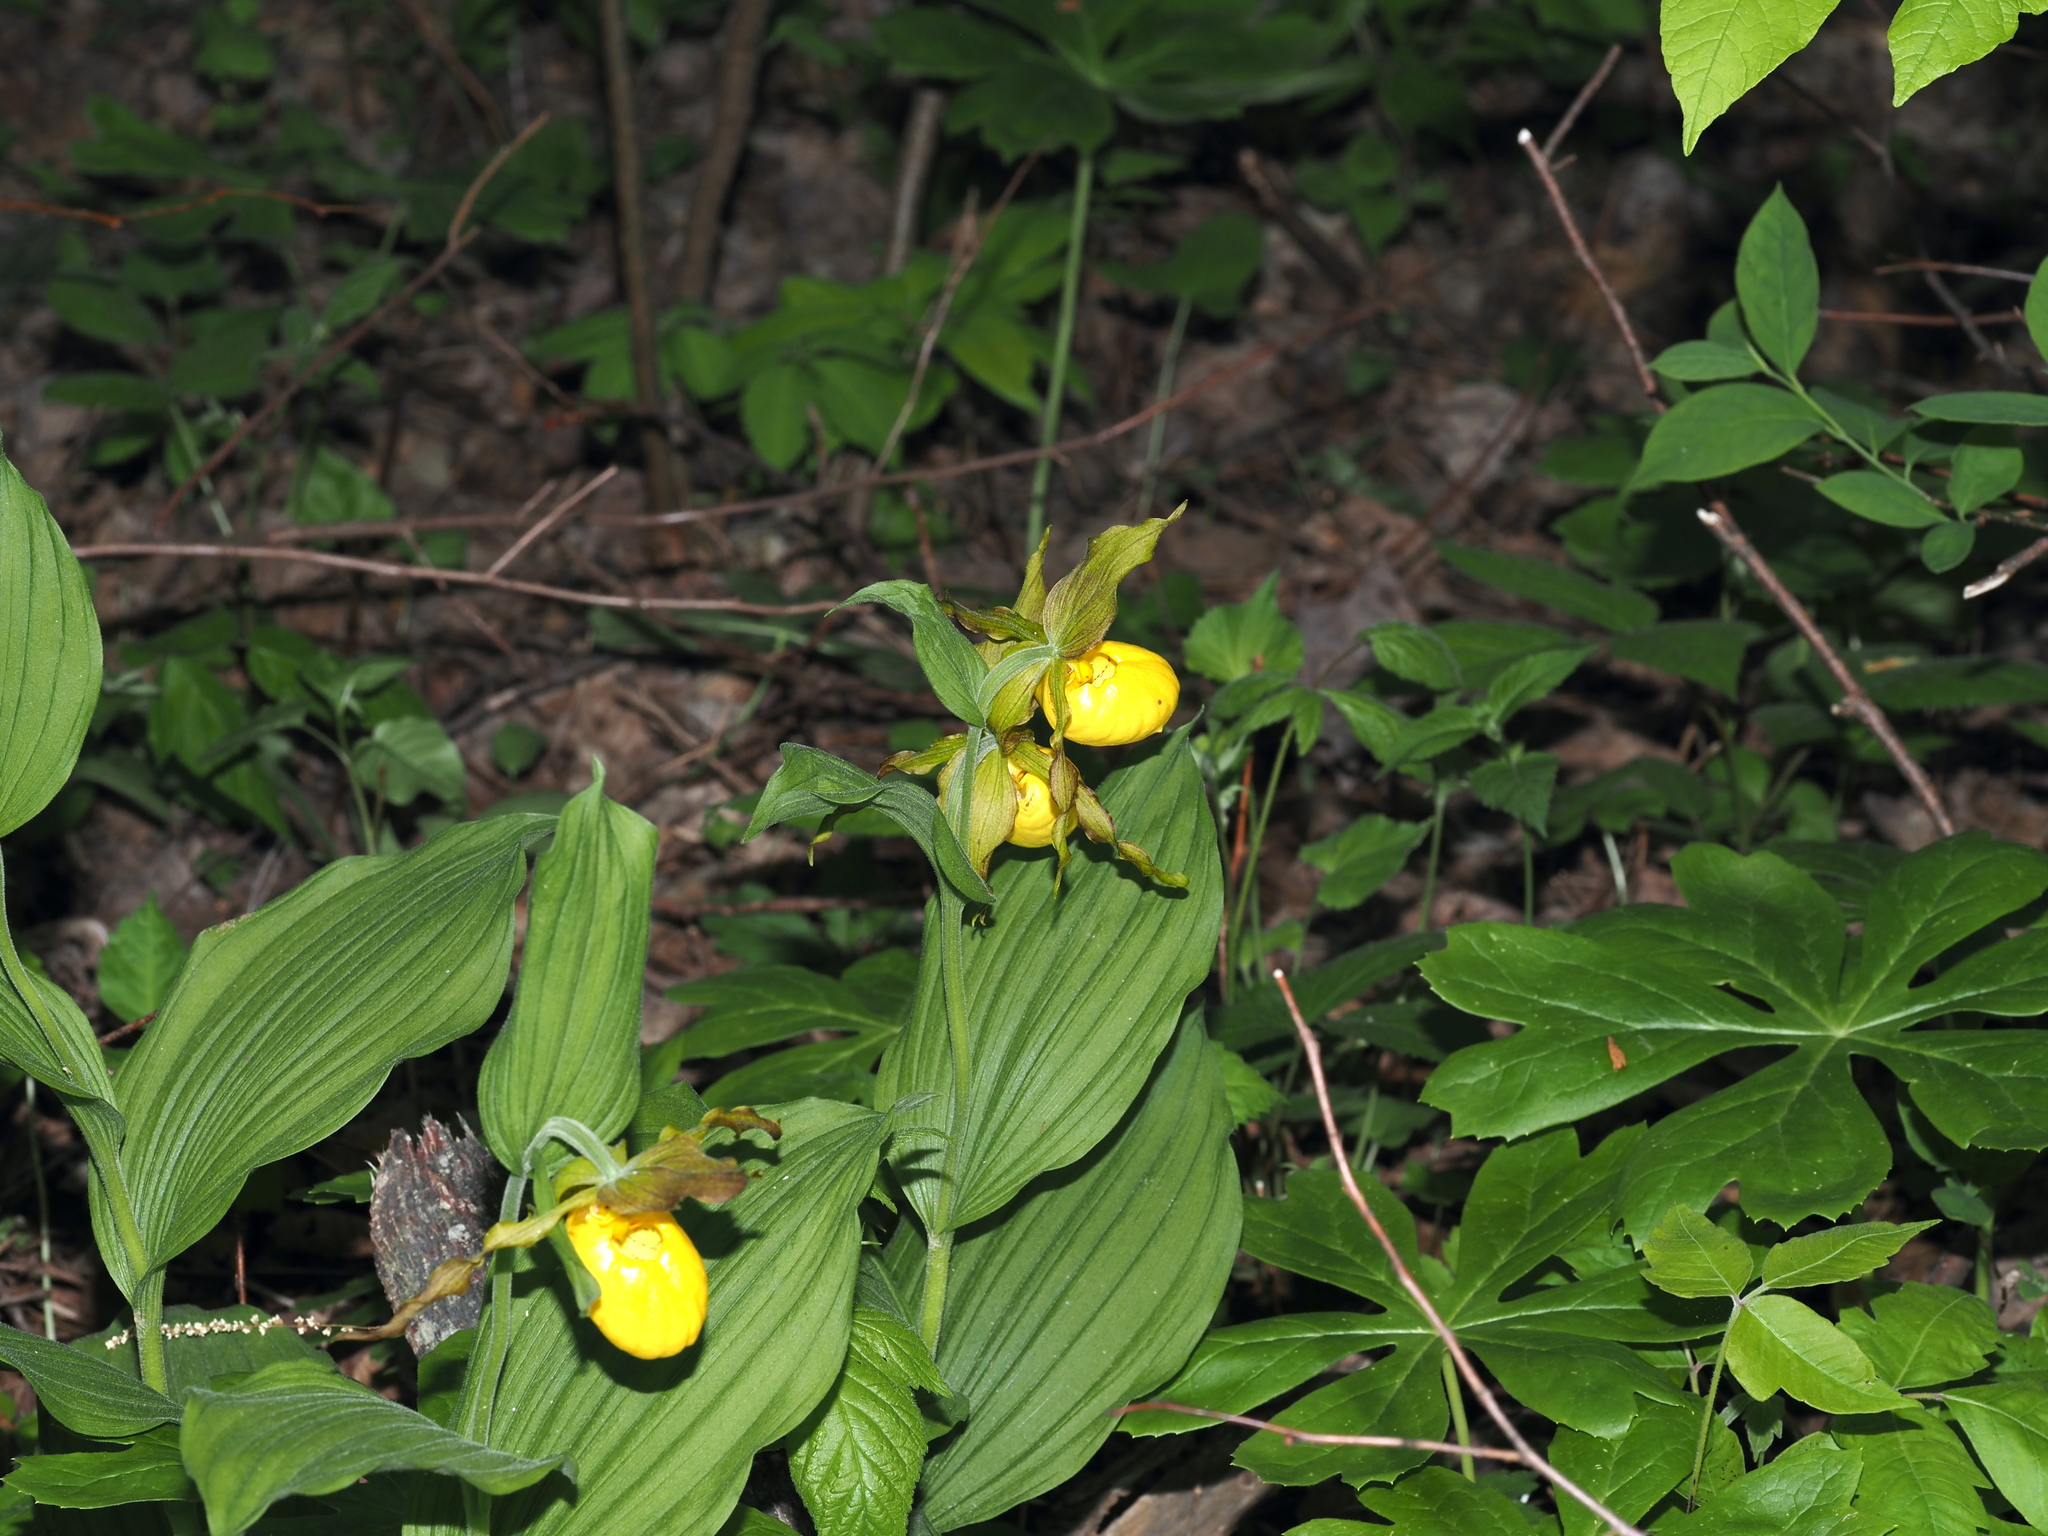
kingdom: Plantae
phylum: Tracheophyta
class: Liliopsida
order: Asparagales
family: Orchidaceae
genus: Cypripedium
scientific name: Cypripedium parviflorum
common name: American yellow lady's-slipper
